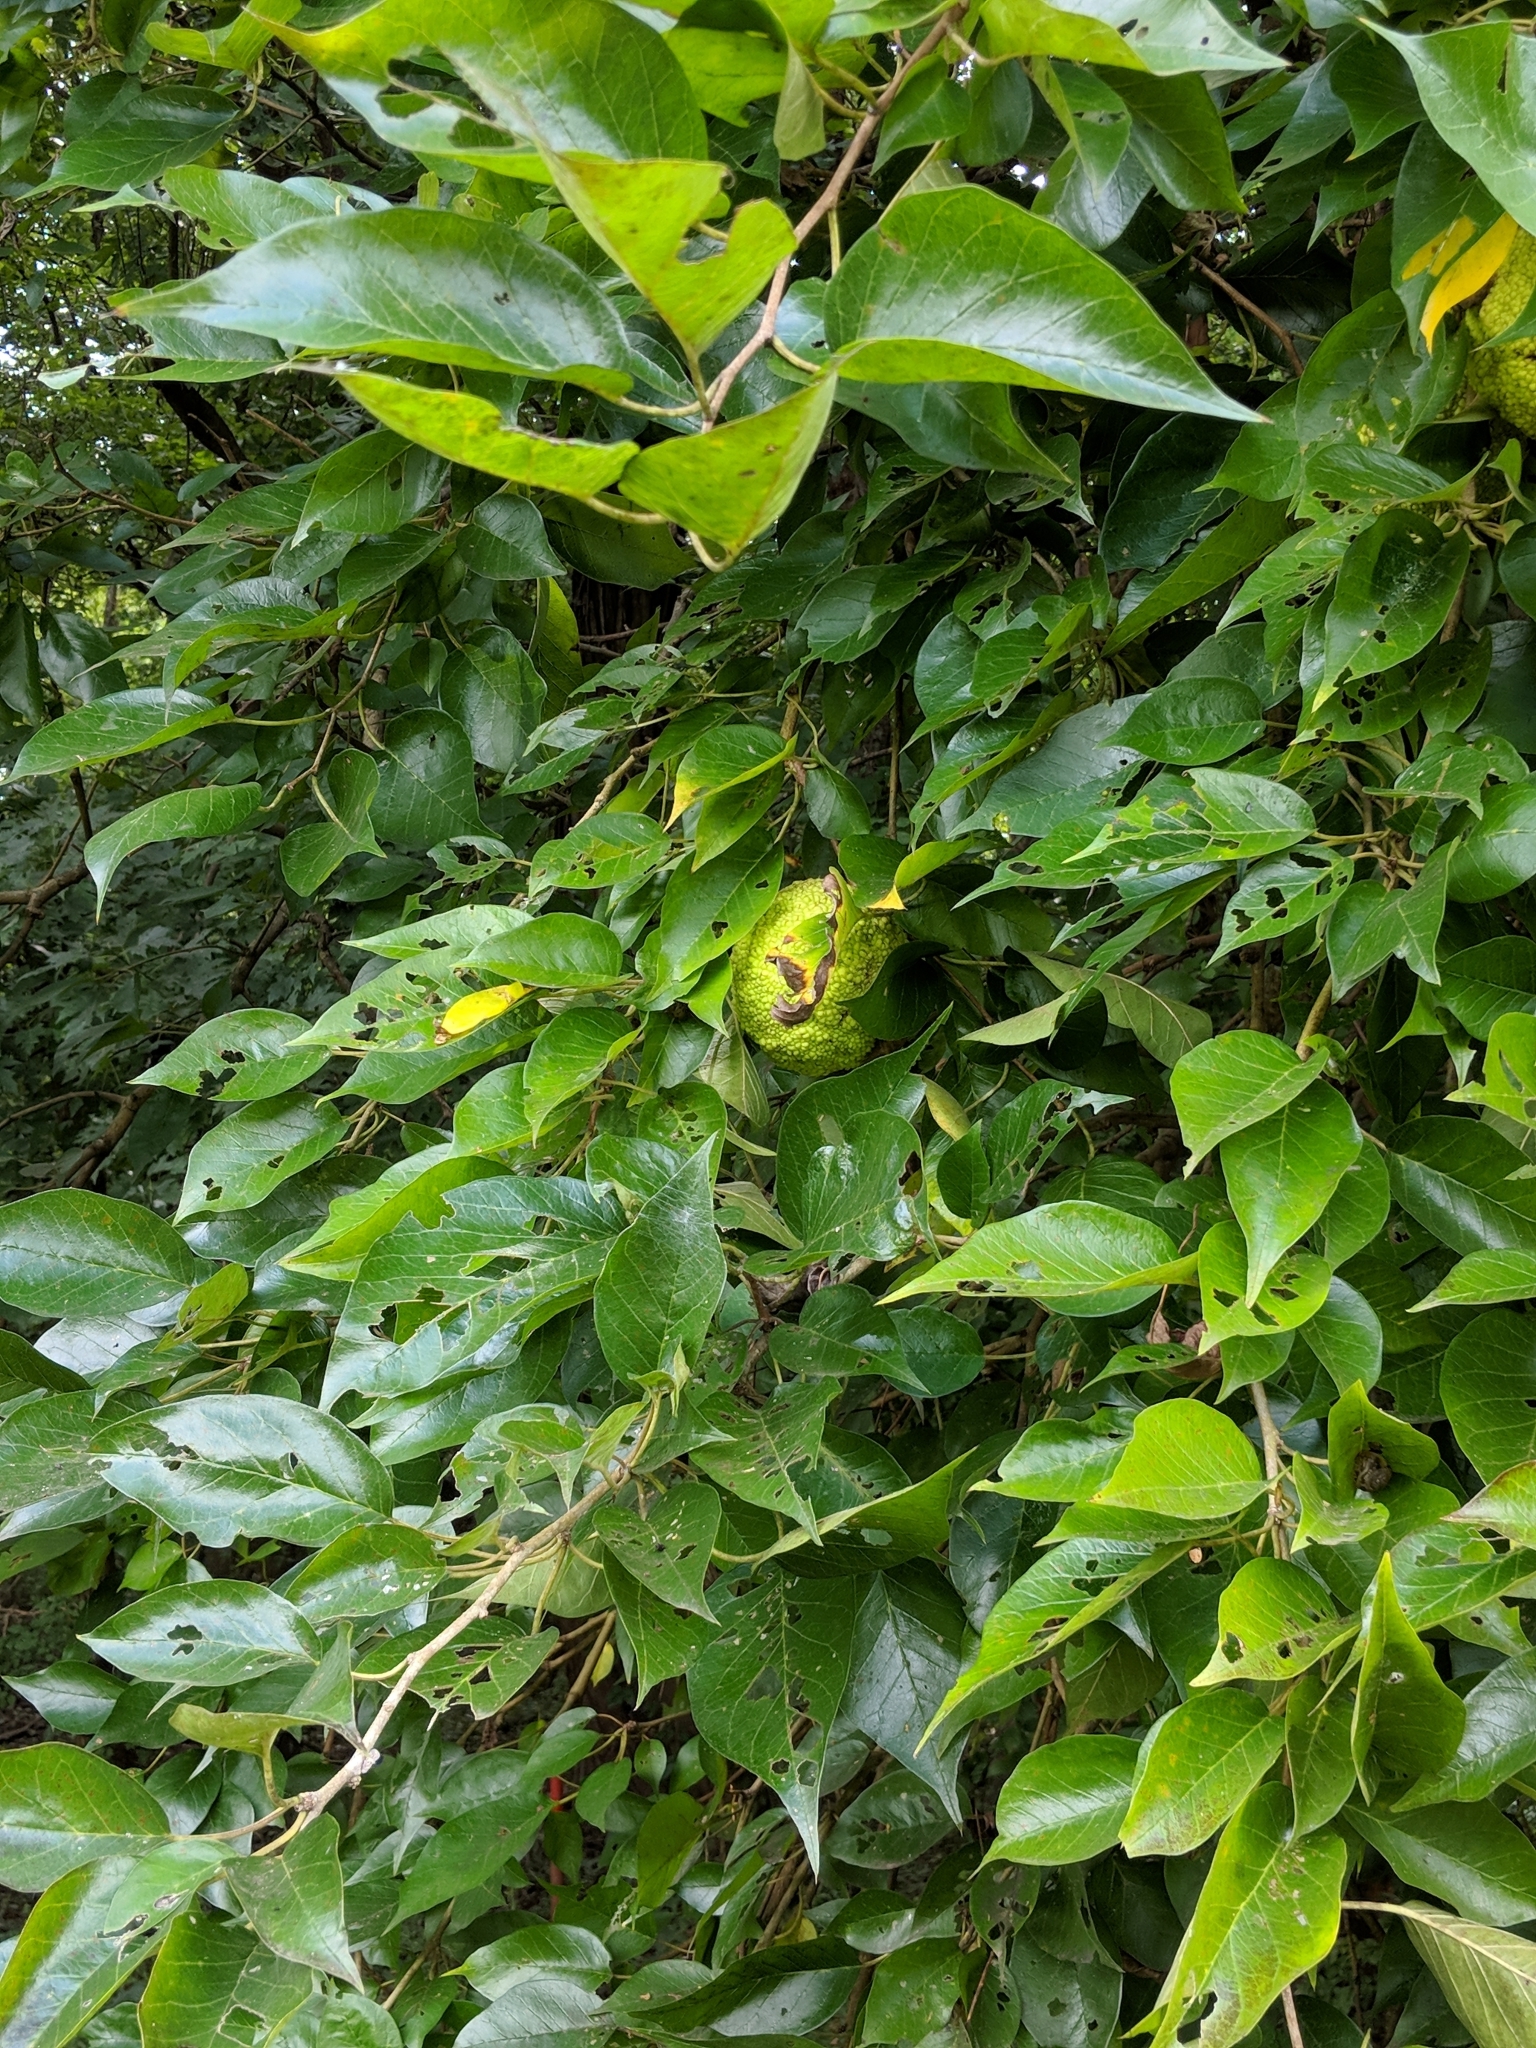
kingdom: Plantae
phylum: Tracheophyta
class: Magnoliopsida
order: Rosales
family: Moraceae
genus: Maclura
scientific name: Maclura pomifera
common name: Osage-orange
